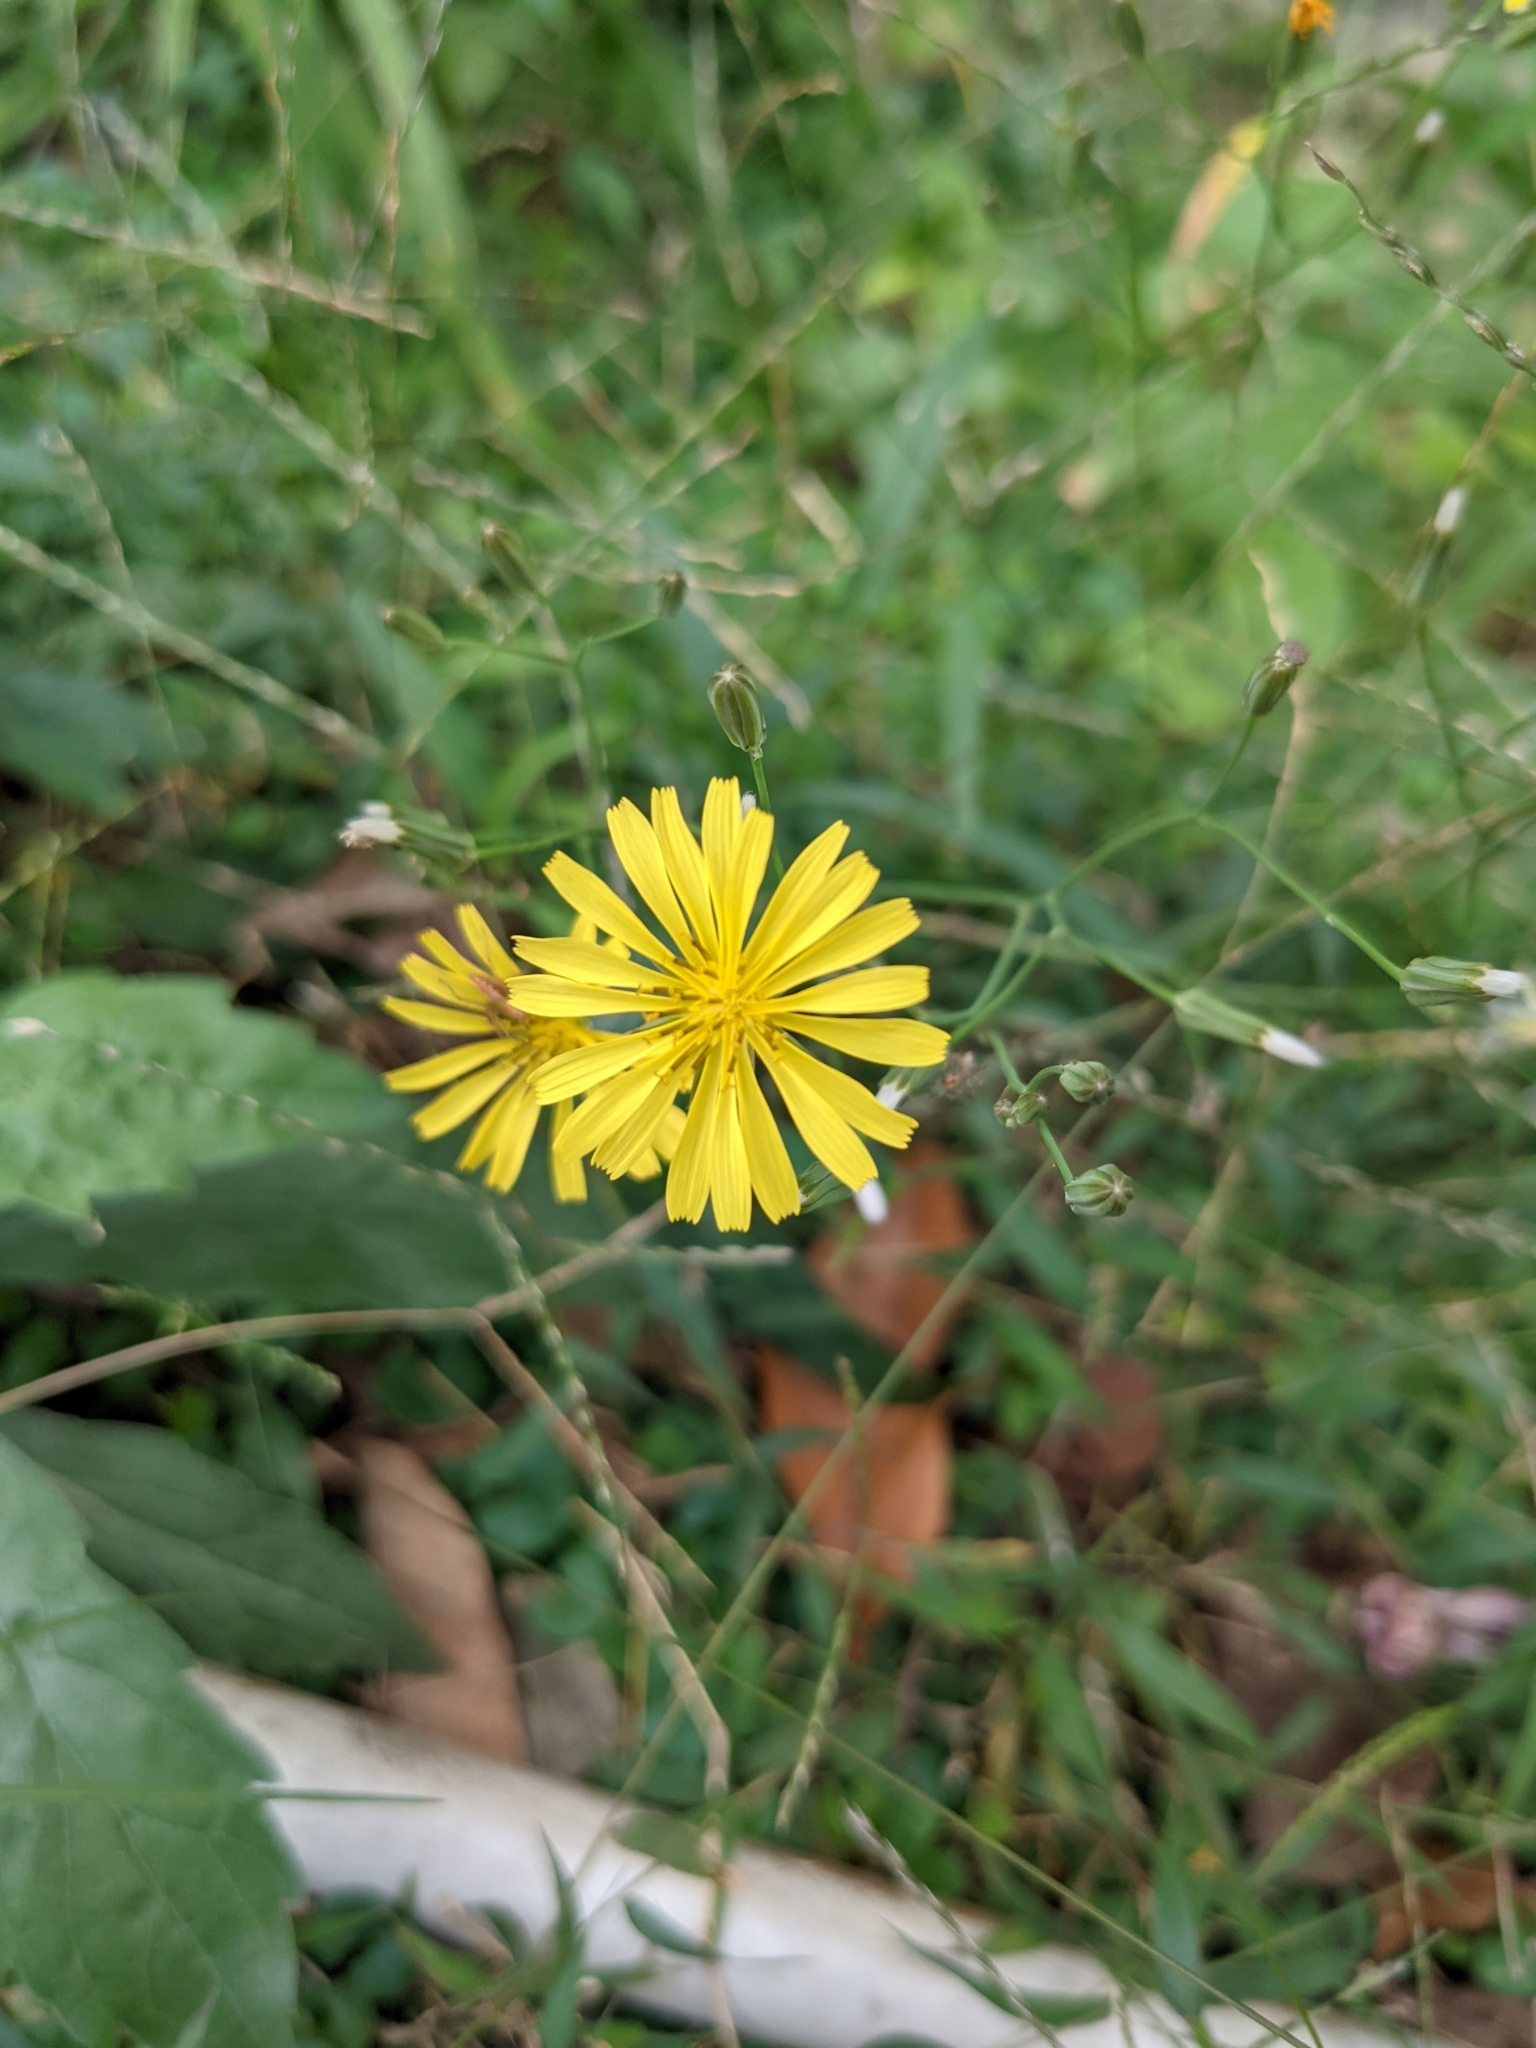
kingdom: Plantae
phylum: Tracheophyta
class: Magnoliopsida
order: Asterales
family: Asteraceae
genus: Ixeris
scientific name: Ixeris chinensis
